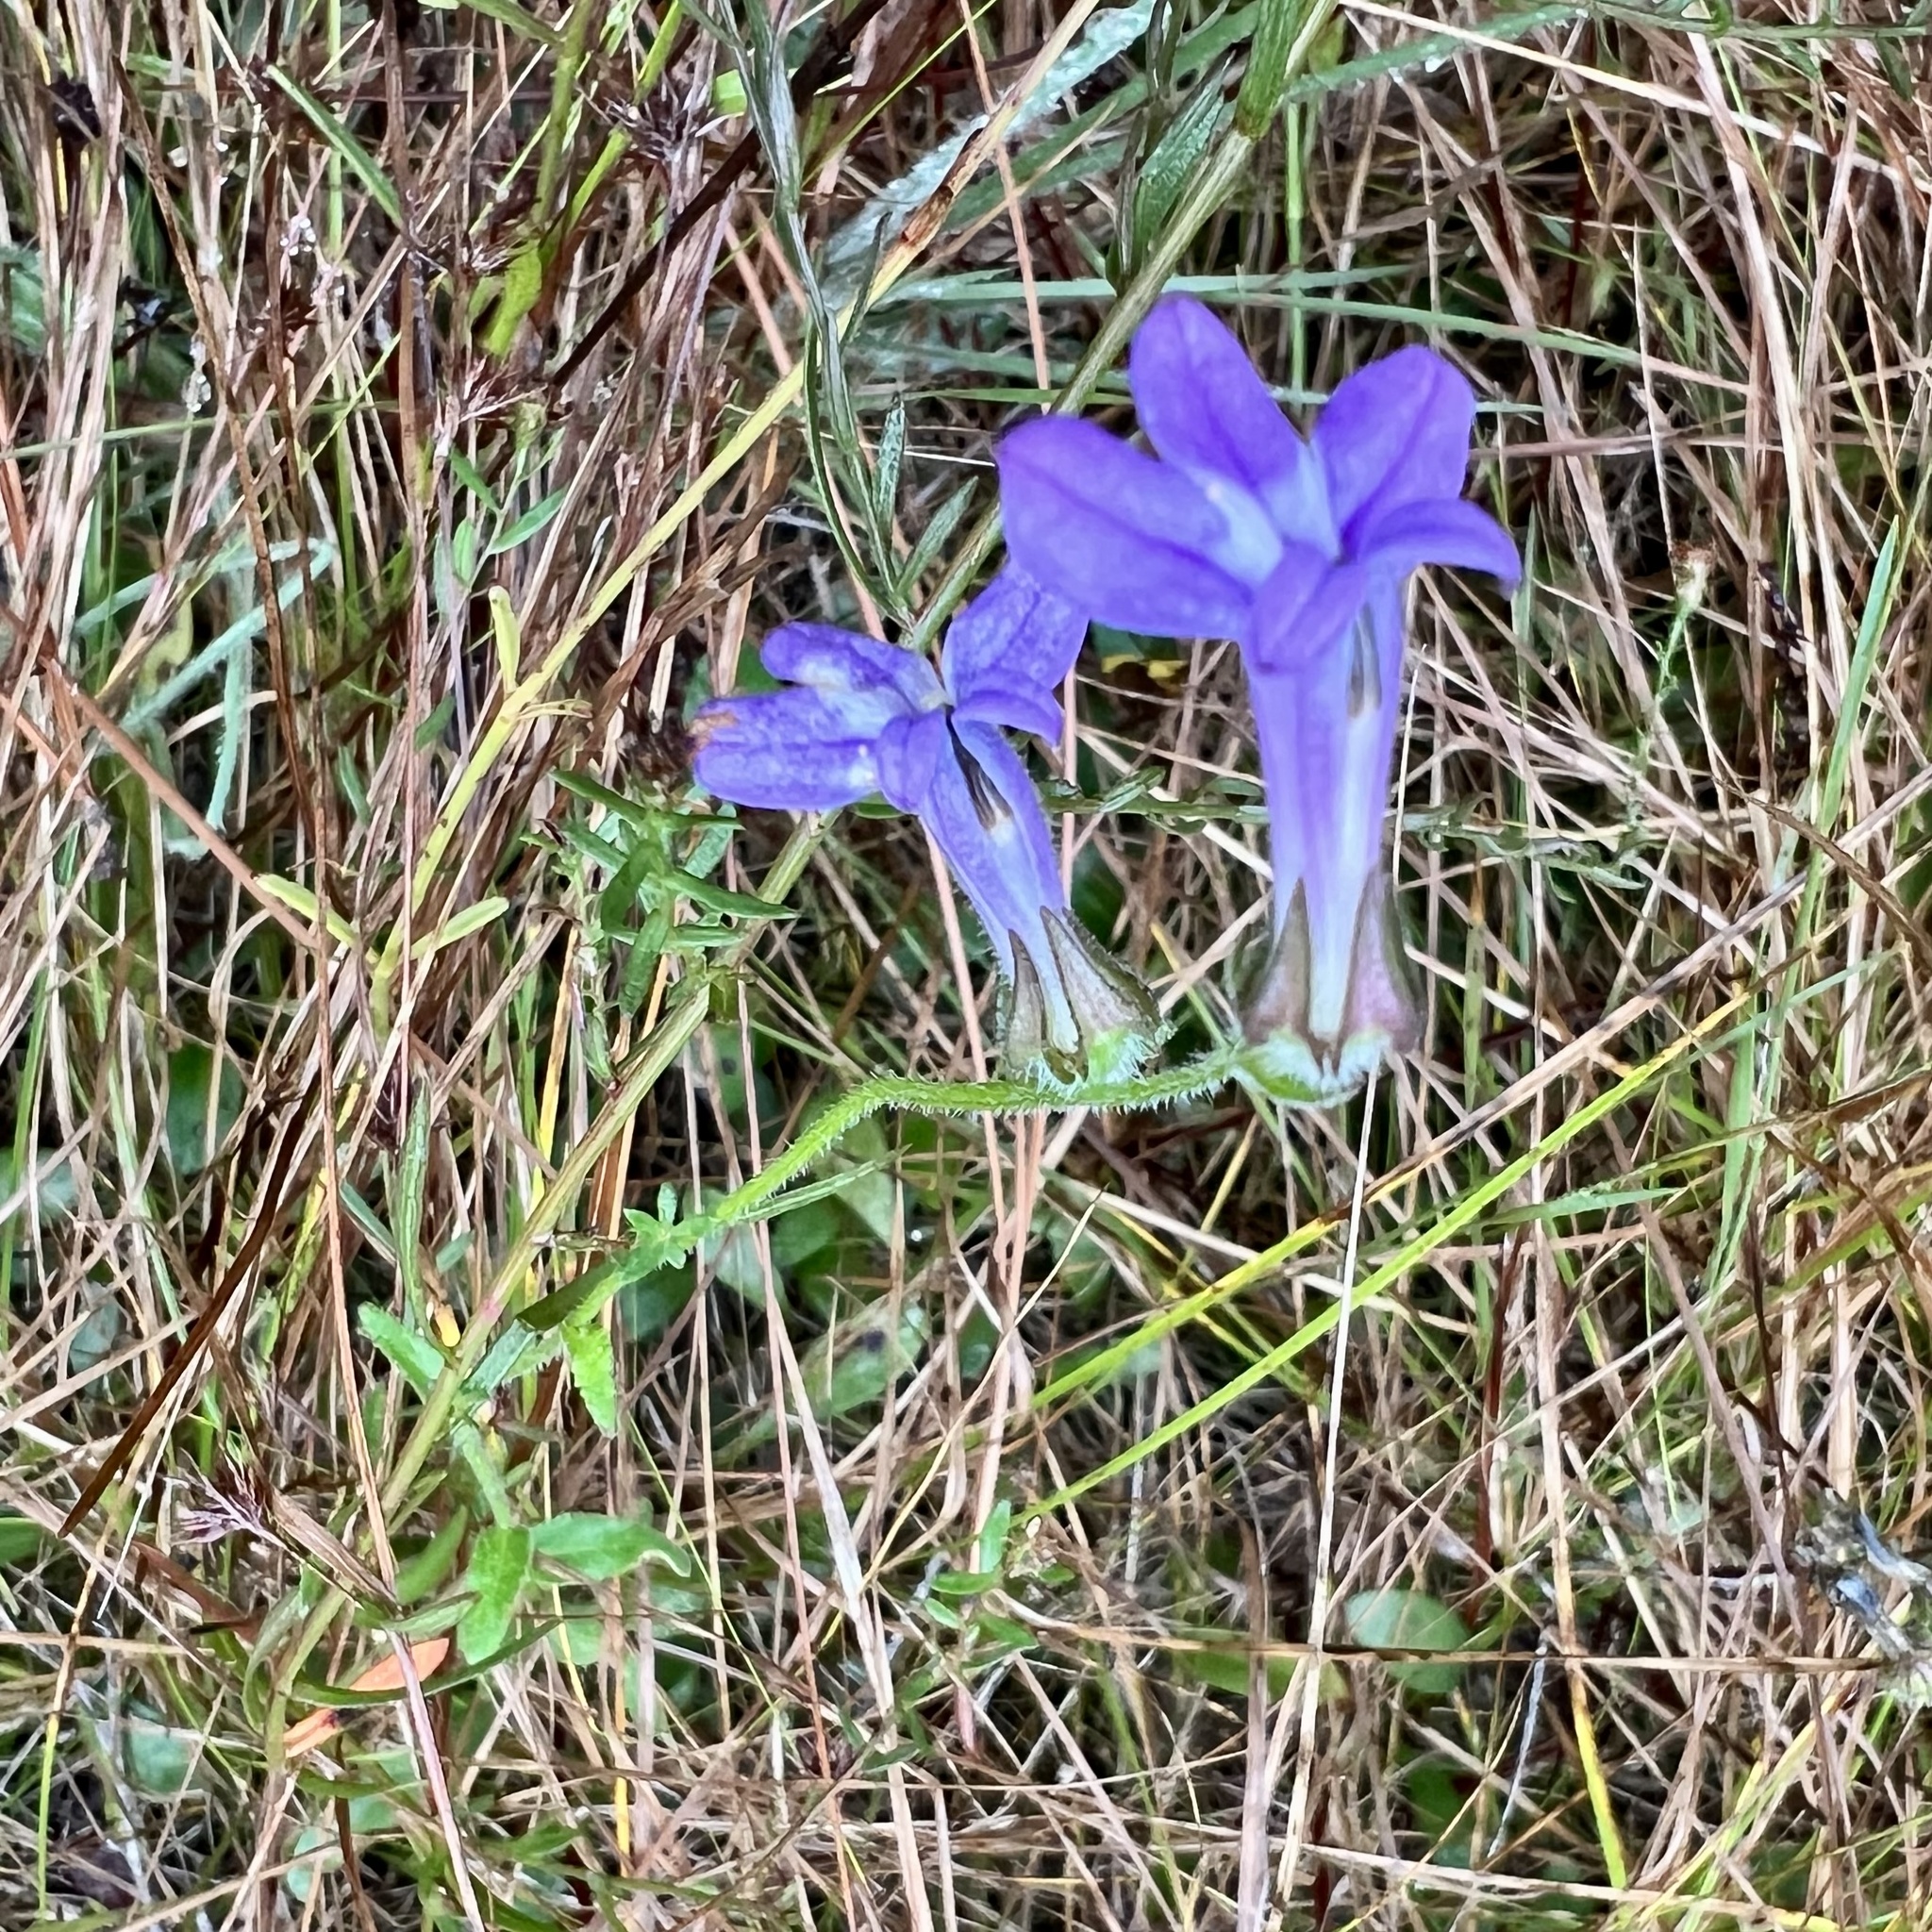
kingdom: Plantae
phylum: Tracheophyta
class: Magnoliopsida
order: Asterales
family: Campanulaceae
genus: Lobelia
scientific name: Lobelia reverchonii
